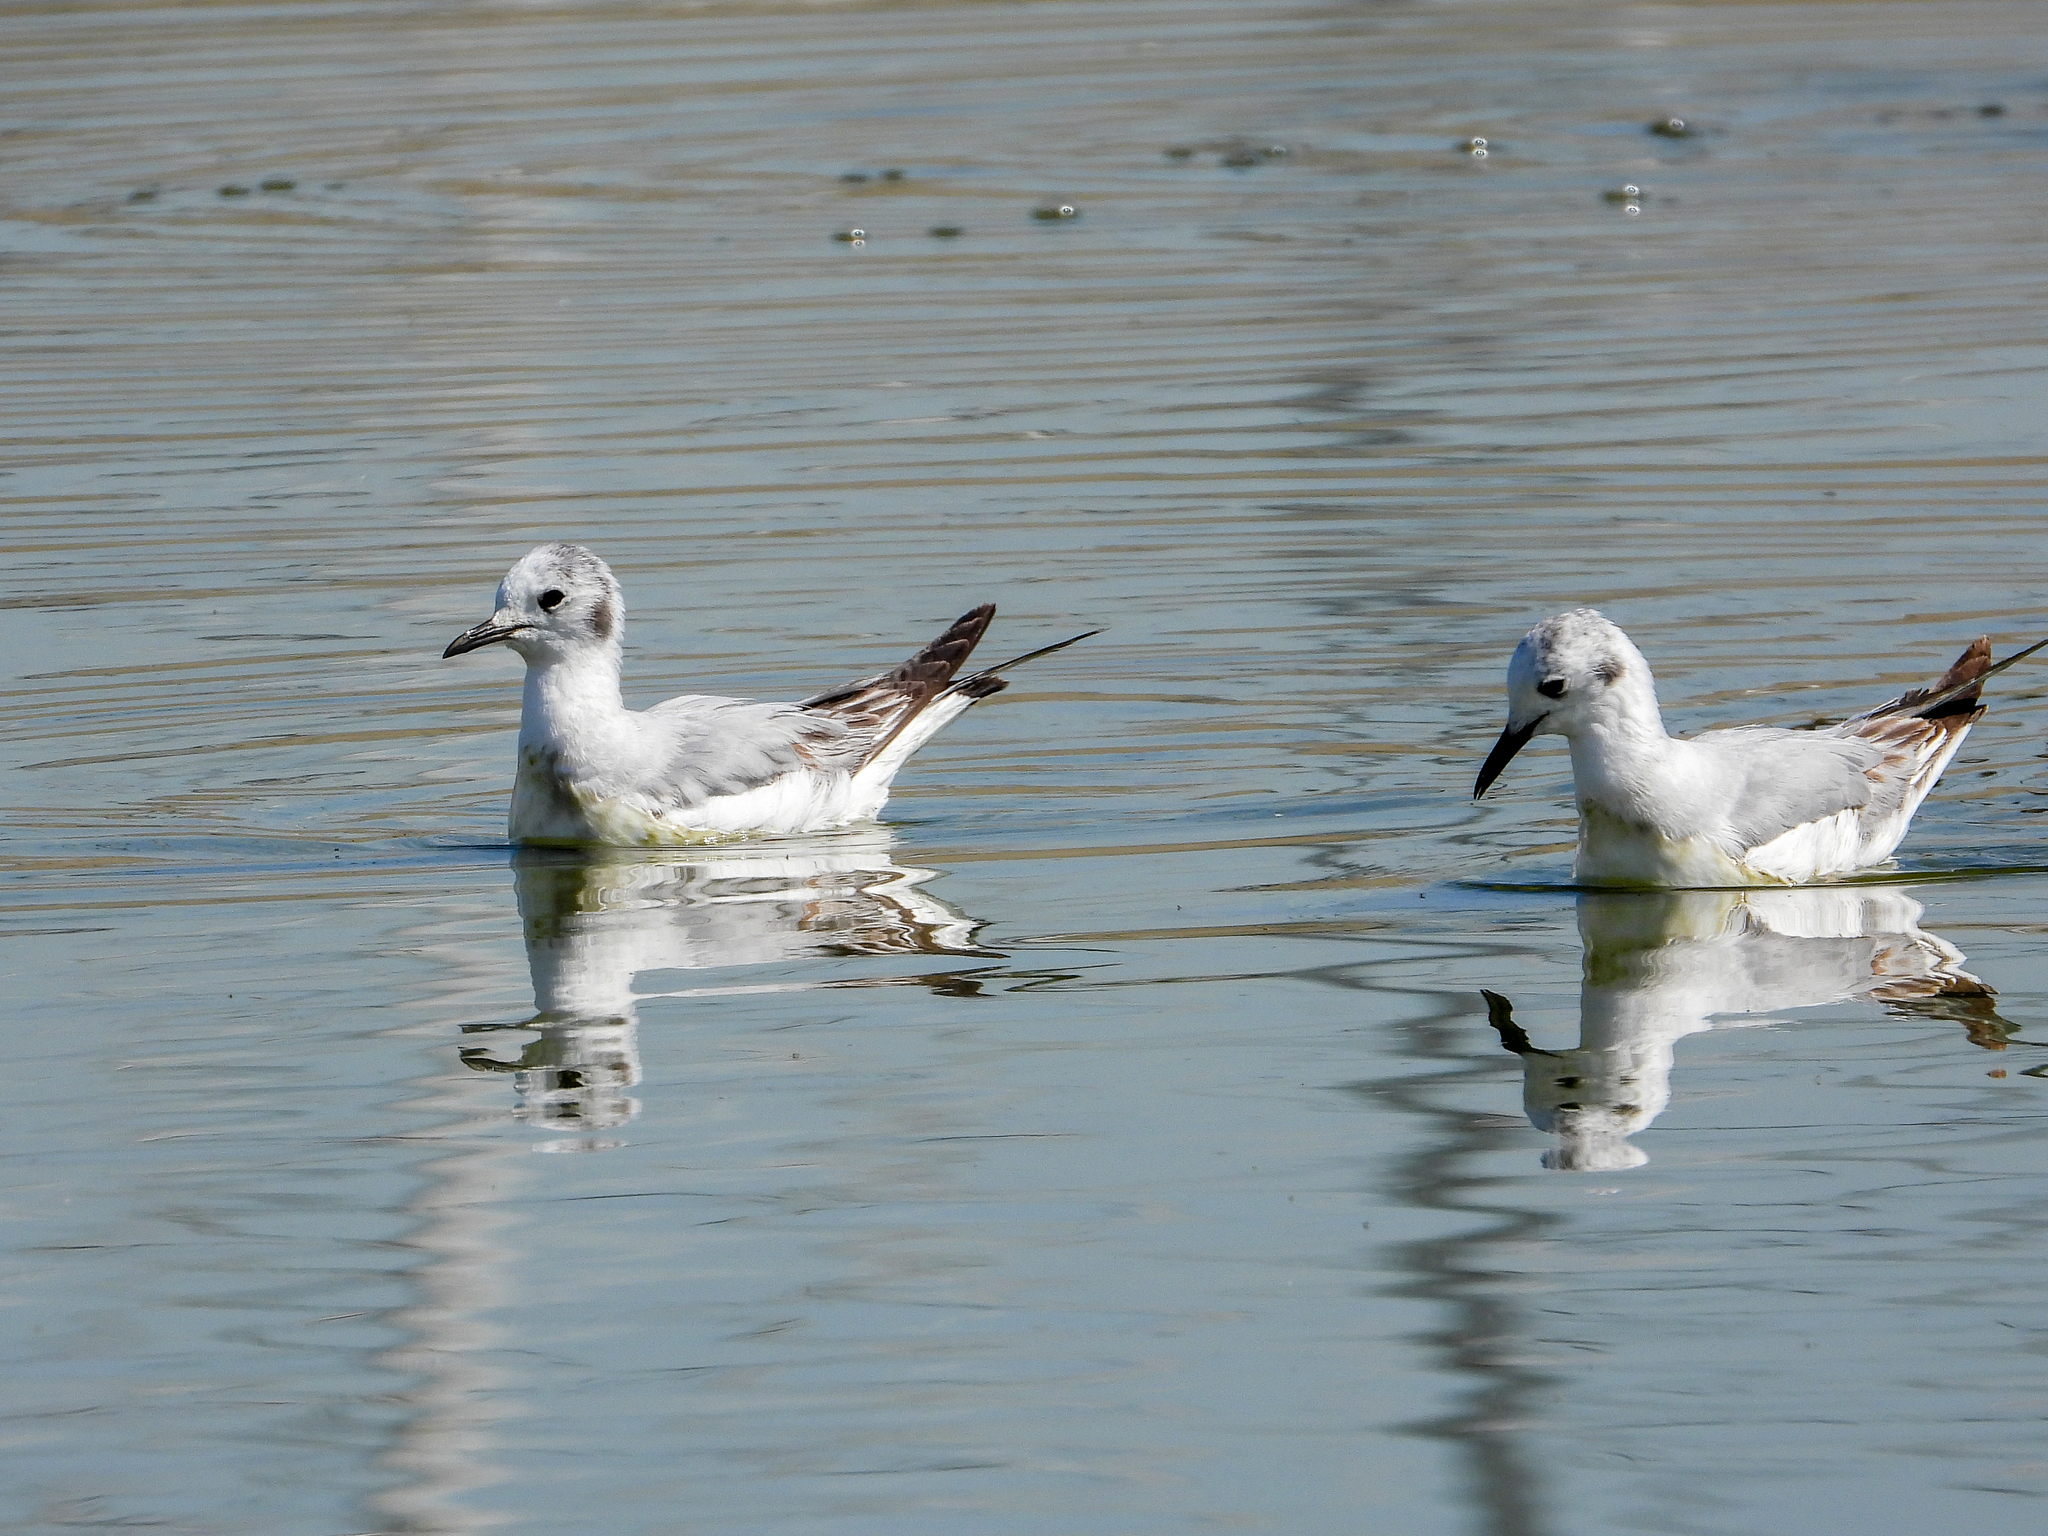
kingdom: Animalia
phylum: Chordata
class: Aves
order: Charadriiformes
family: Laridae
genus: Chroicocephalus
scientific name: Chroicocephalus philadelphia
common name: Bonaparte's gull
